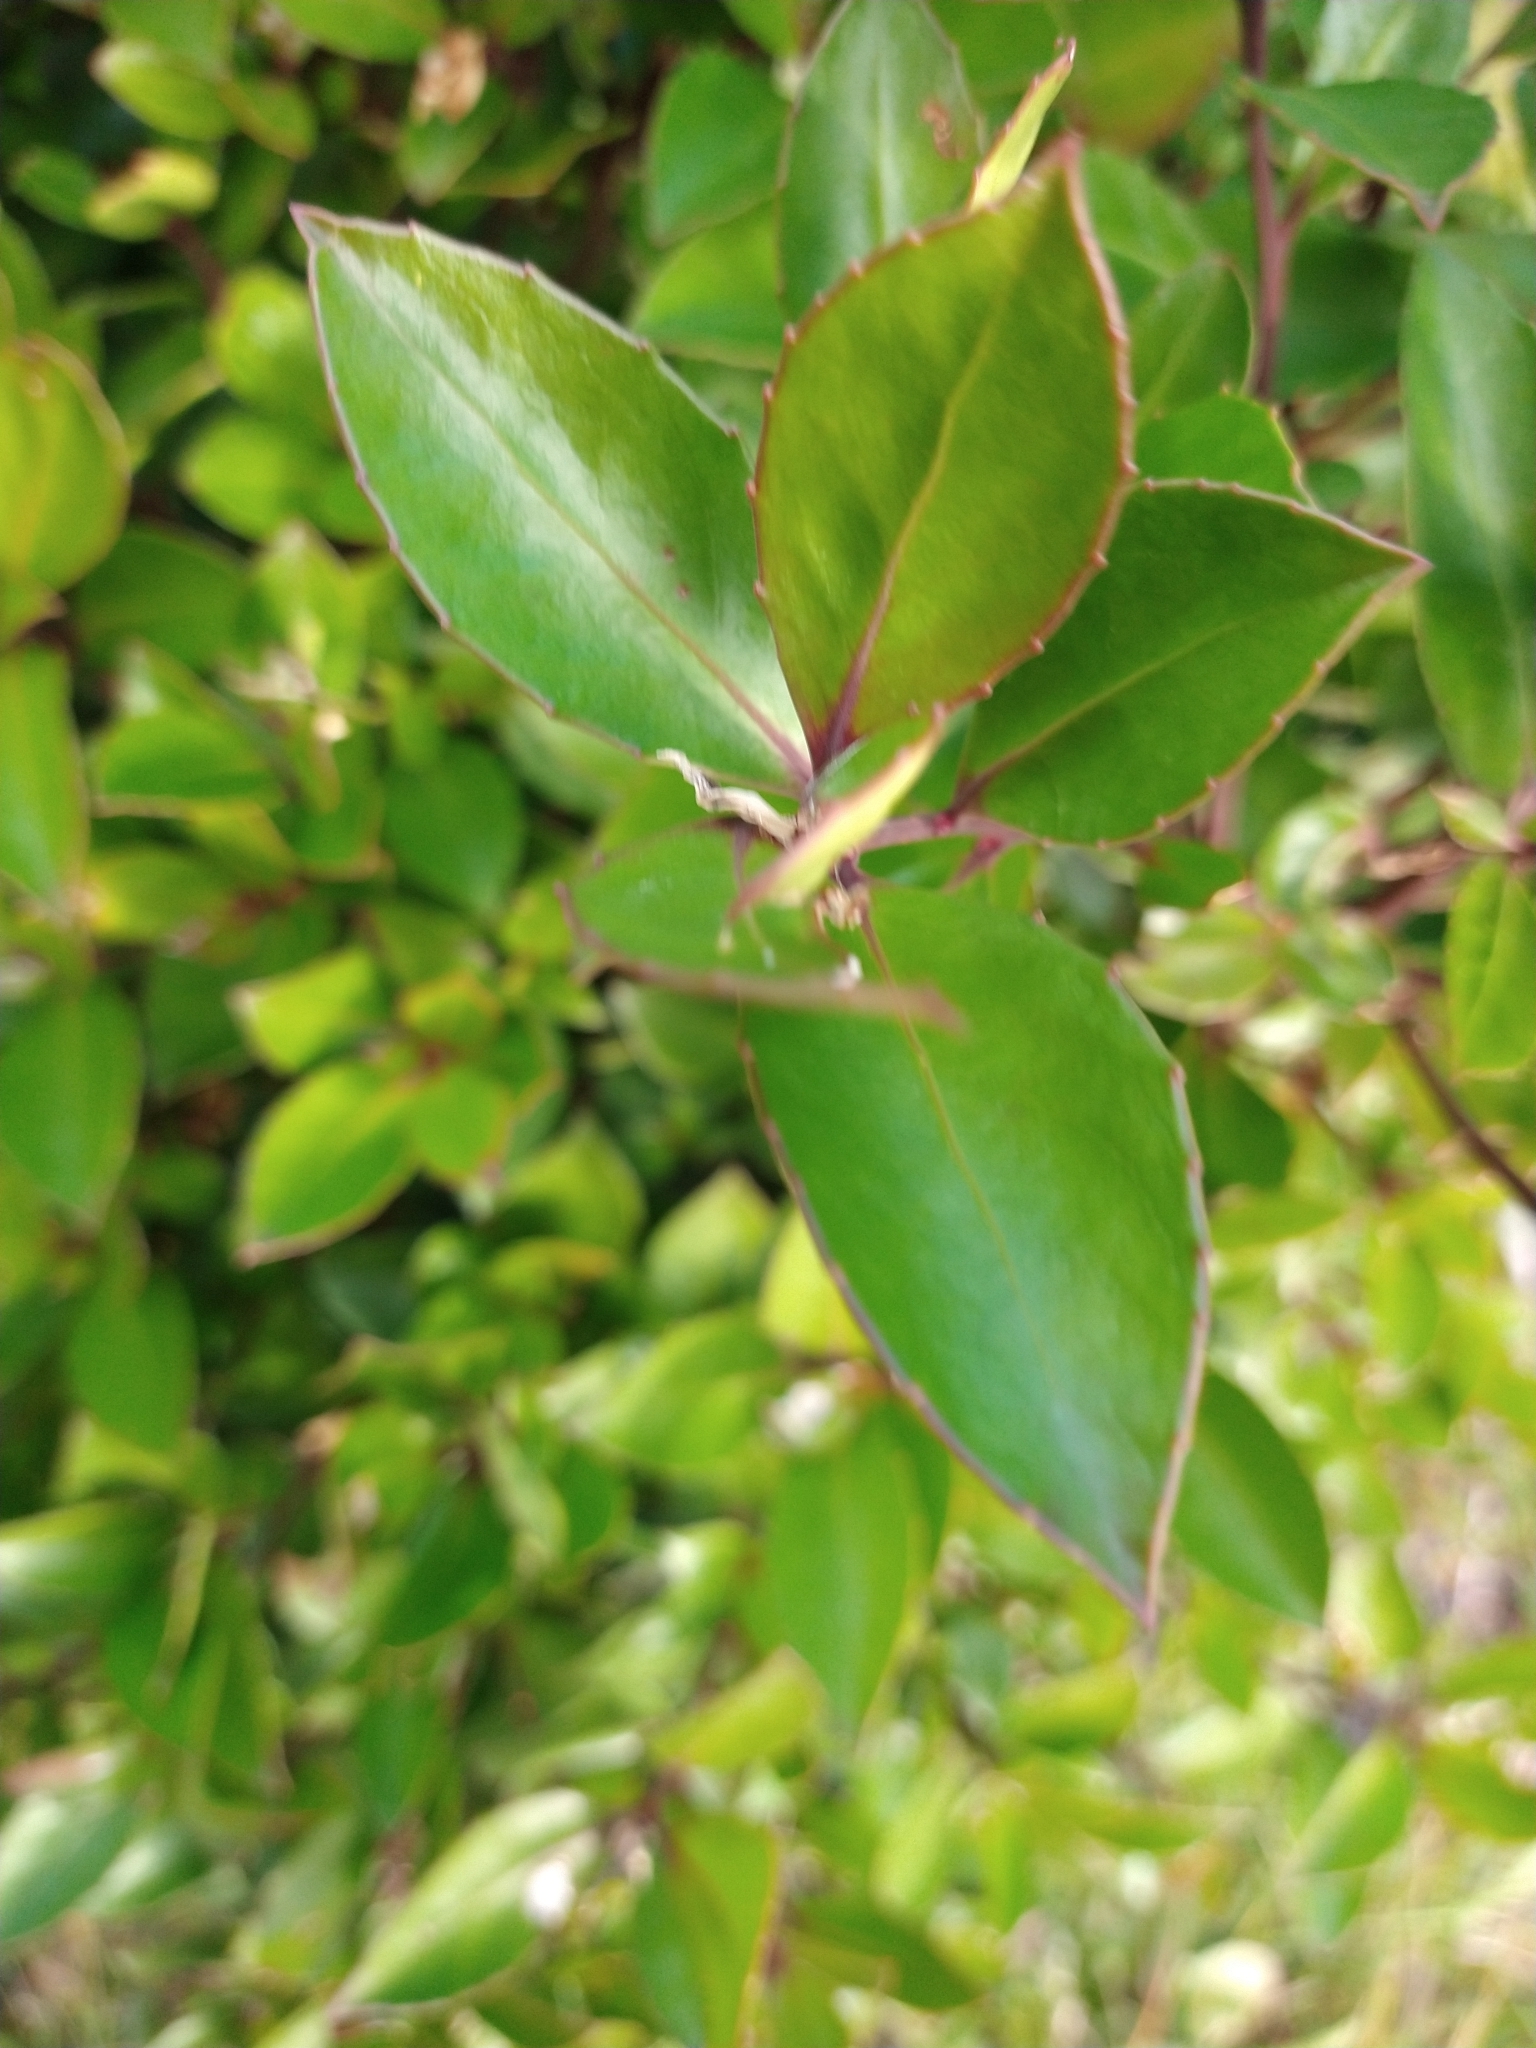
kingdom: Plantae
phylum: Tracheophyta
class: Magnoliopsida
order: Celastrales
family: Celastraceae
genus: Maytenus
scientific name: Maytenus magellanica
